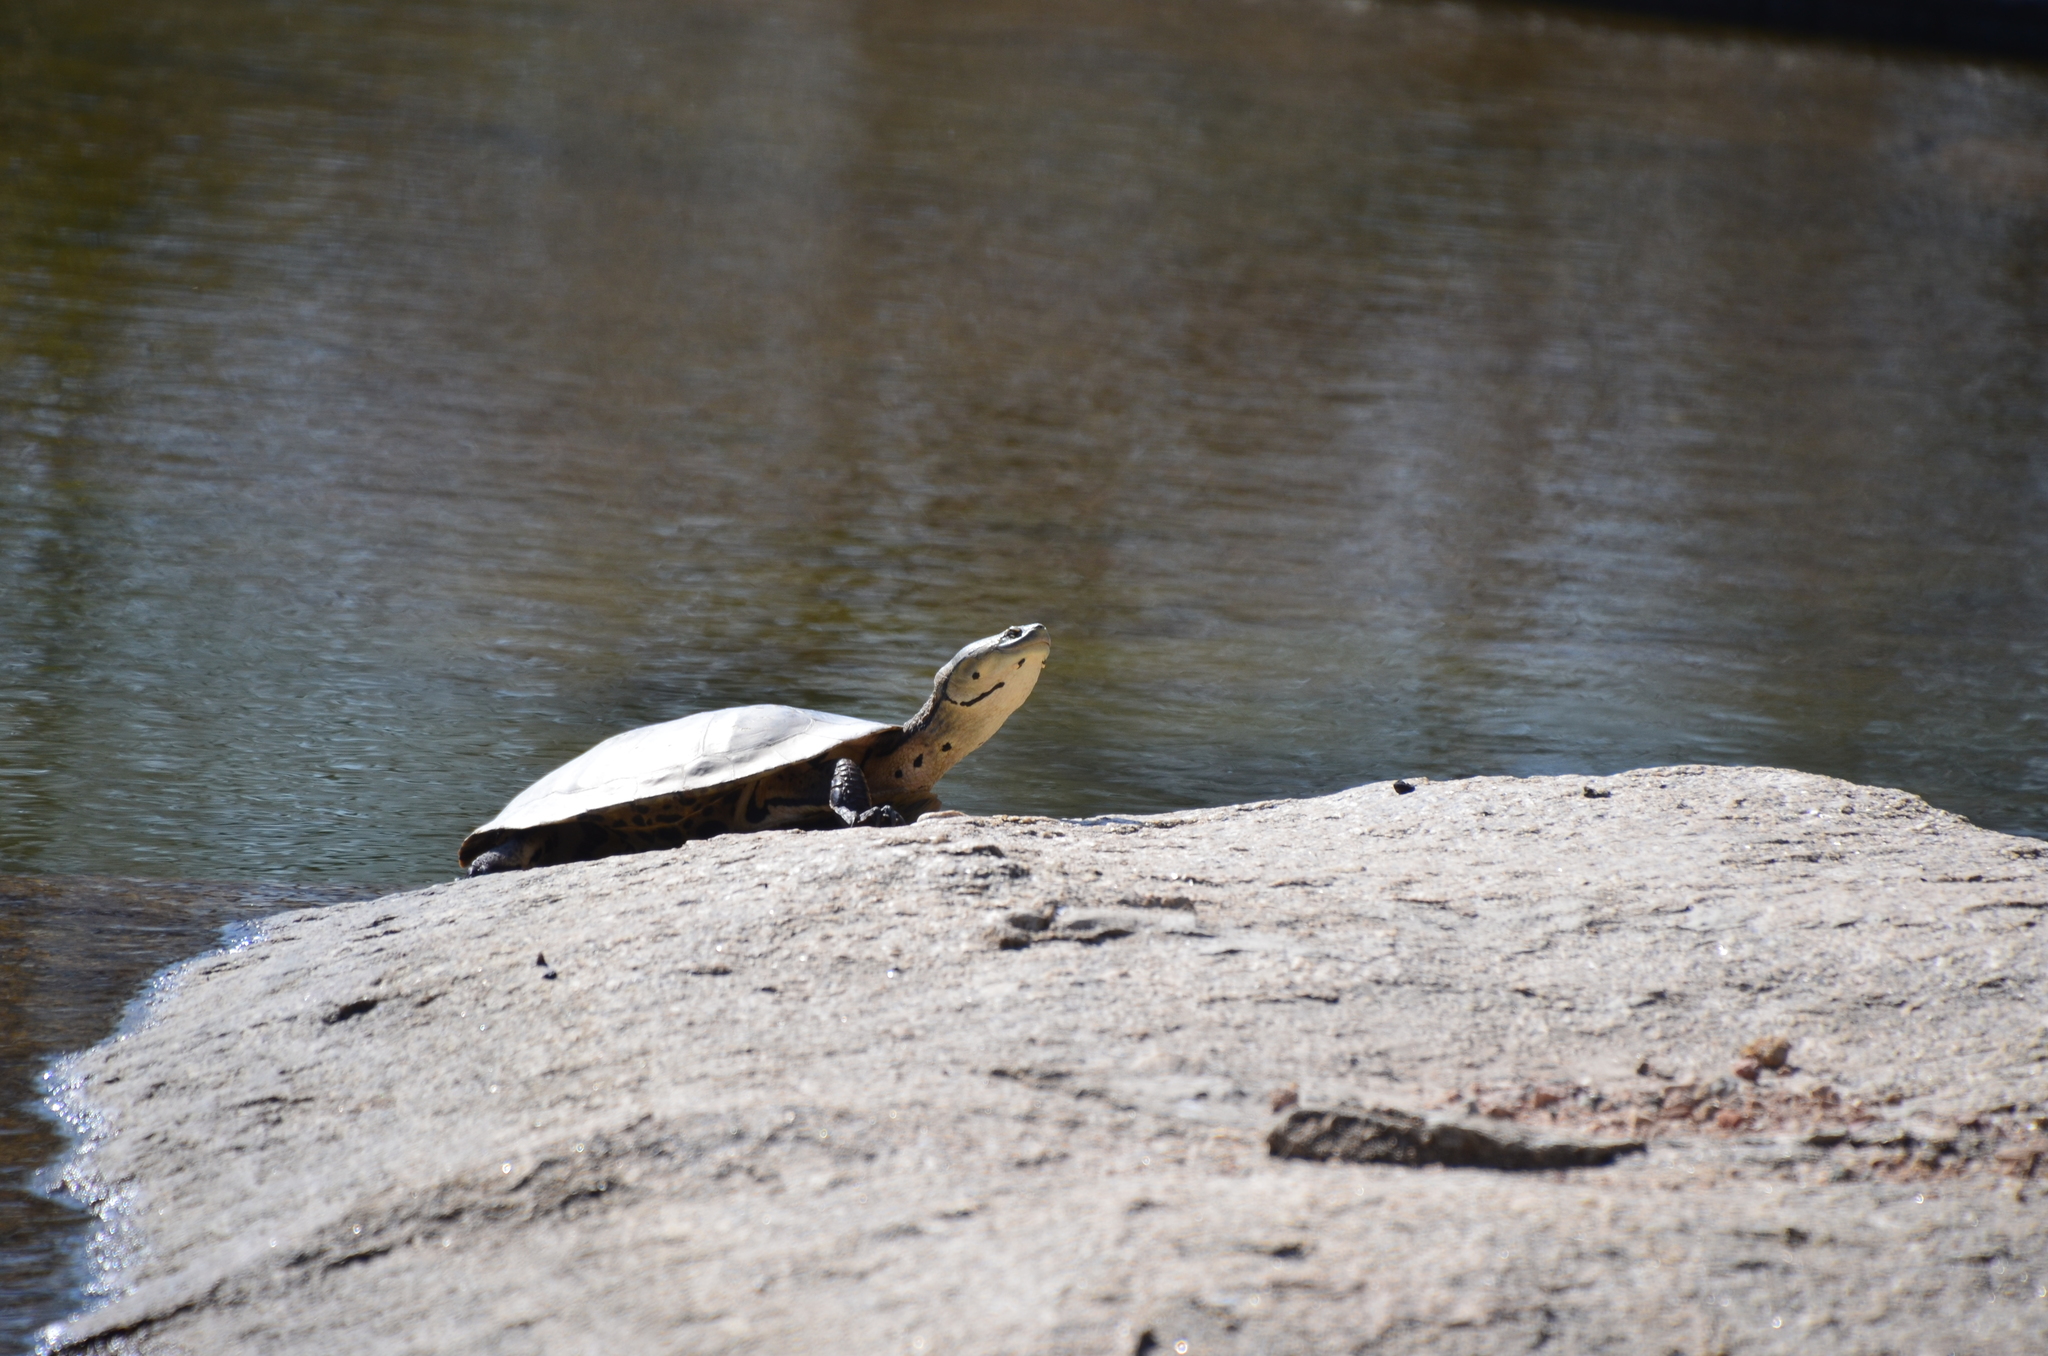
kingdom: Animalia
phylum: Chordata
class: Testudines
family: Chelidae
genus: Phrynops
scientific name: Phrynops hilarii
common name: Side-necked turtle of saint hillaire
